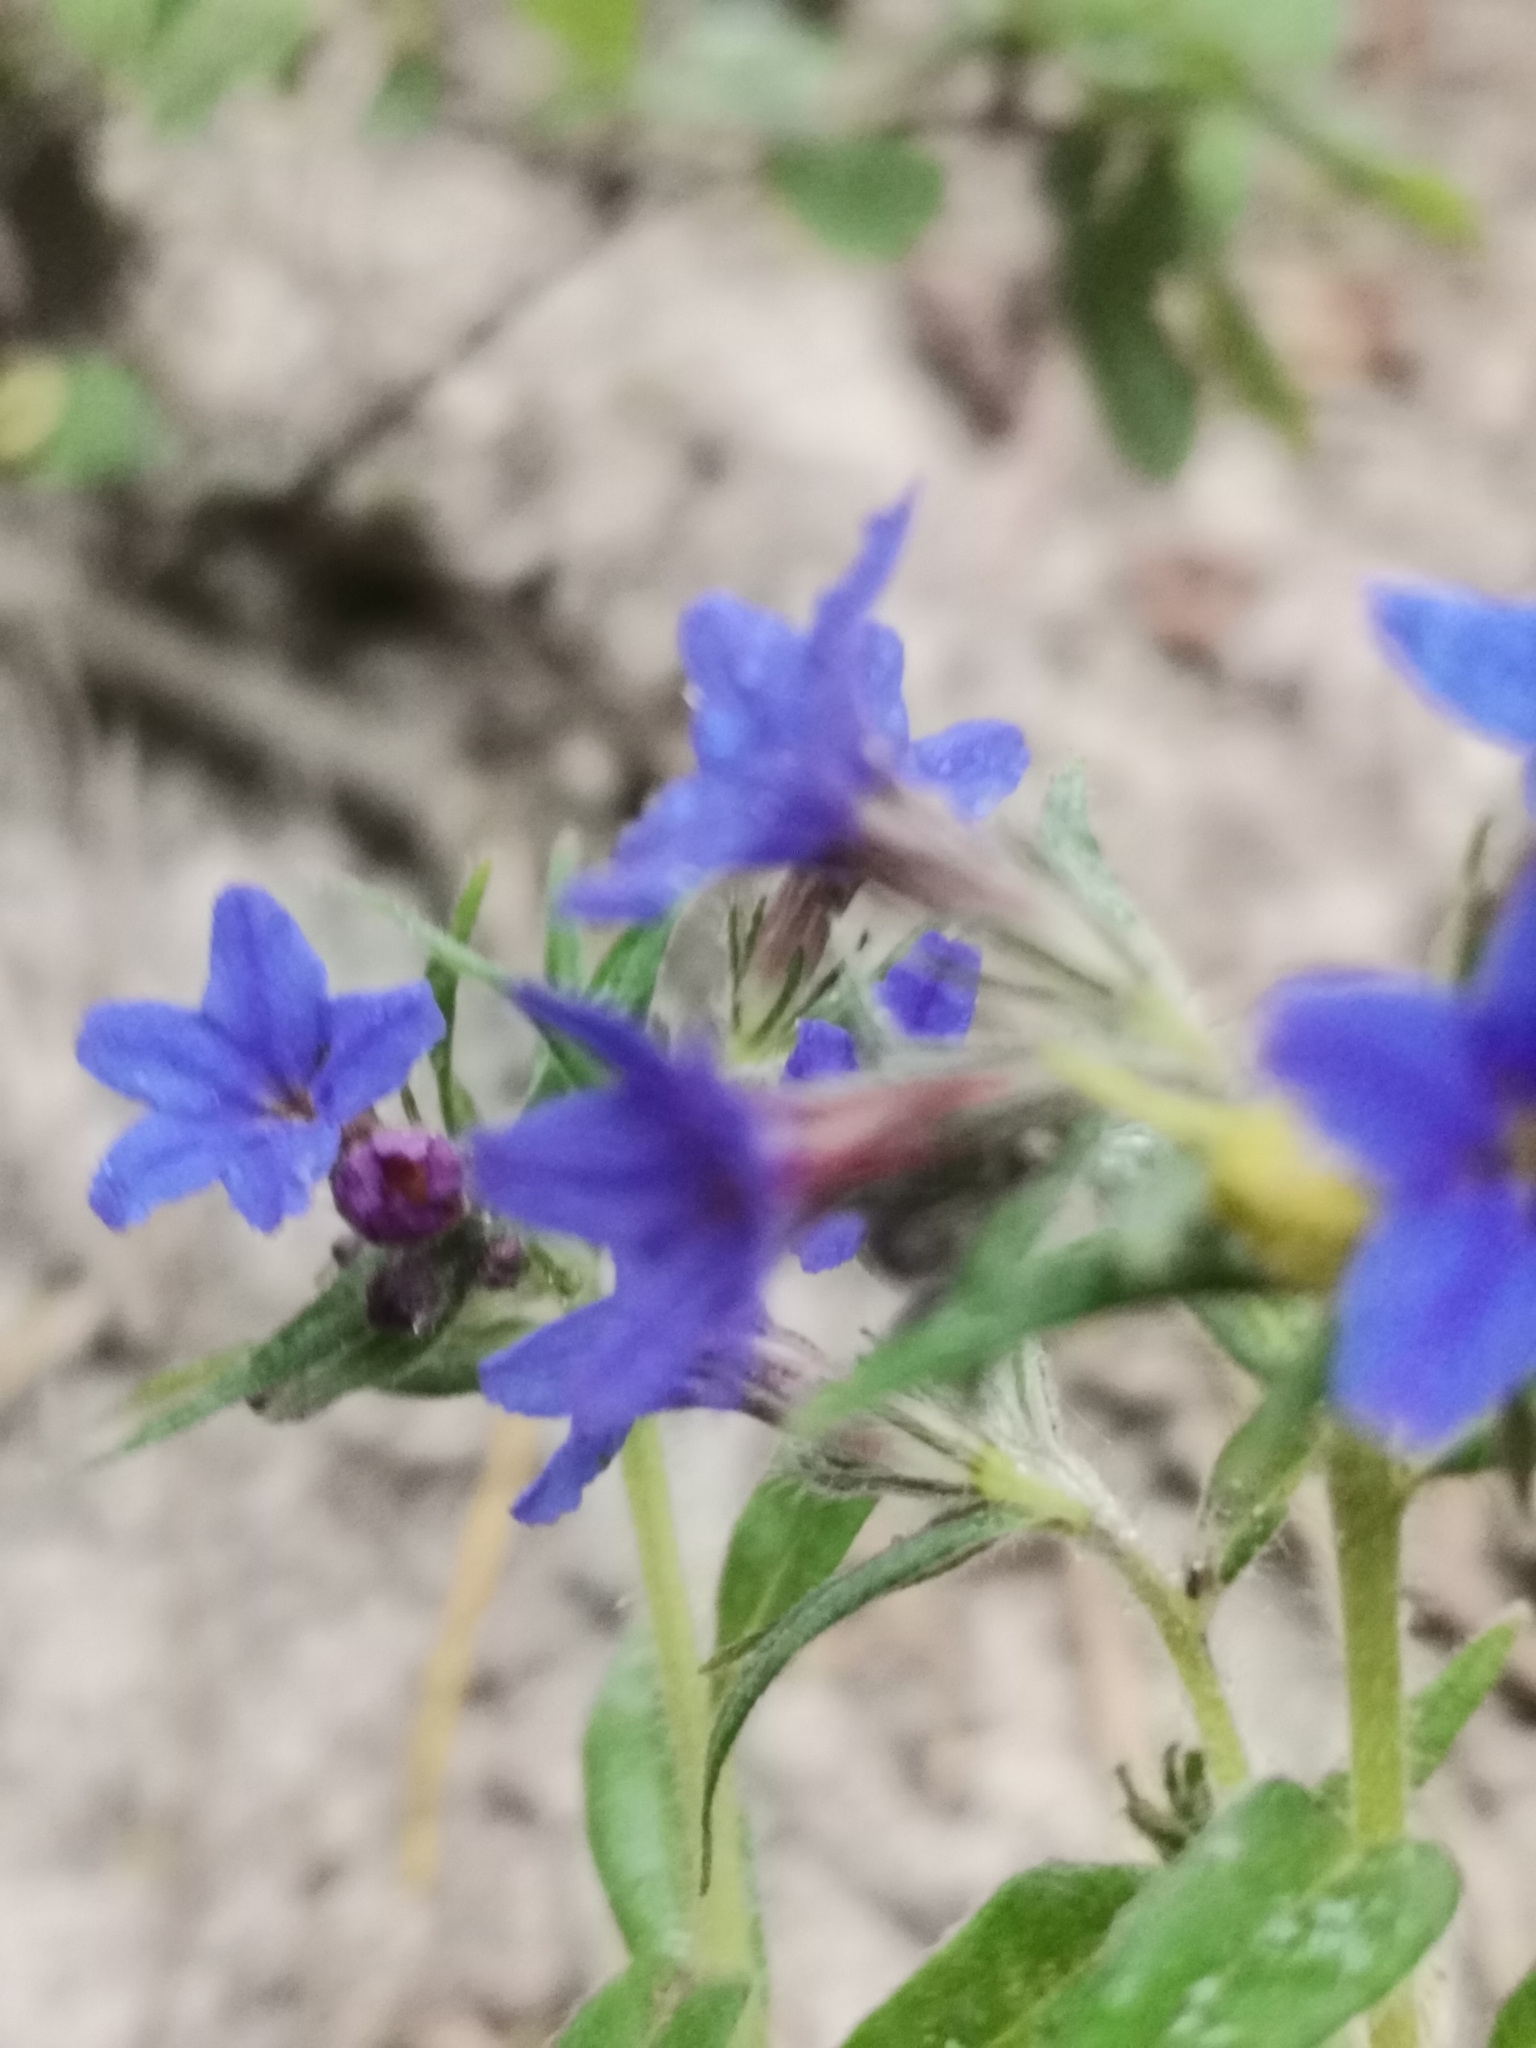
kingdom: Plantae
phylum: Tracheophyta
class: Magnoliopsida
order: Boraginales
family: Boraginaceae
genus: Aegonychon
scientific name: Aegonychon purpurocaeruleum
